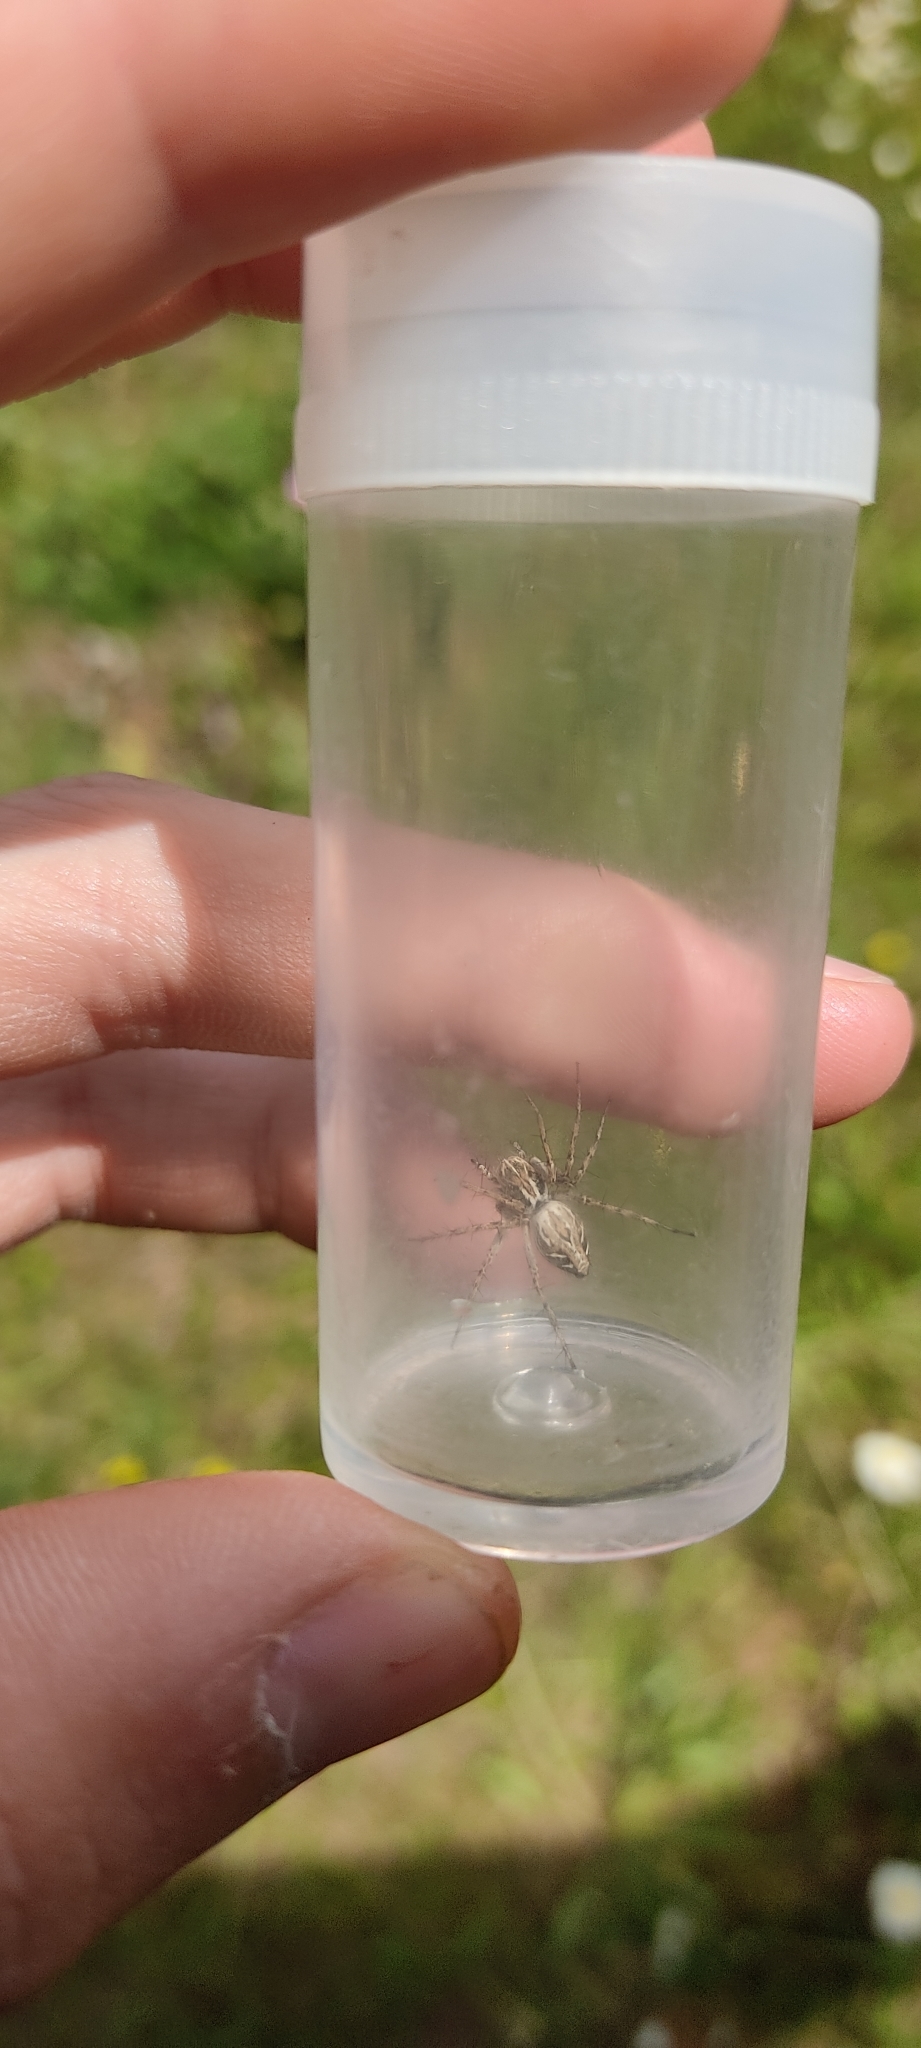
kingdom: Animalia
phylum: Arthropoda
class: Arachnida
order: Araneae
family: Oxyopidae
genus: Oxyopes
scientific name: Oxyopes
